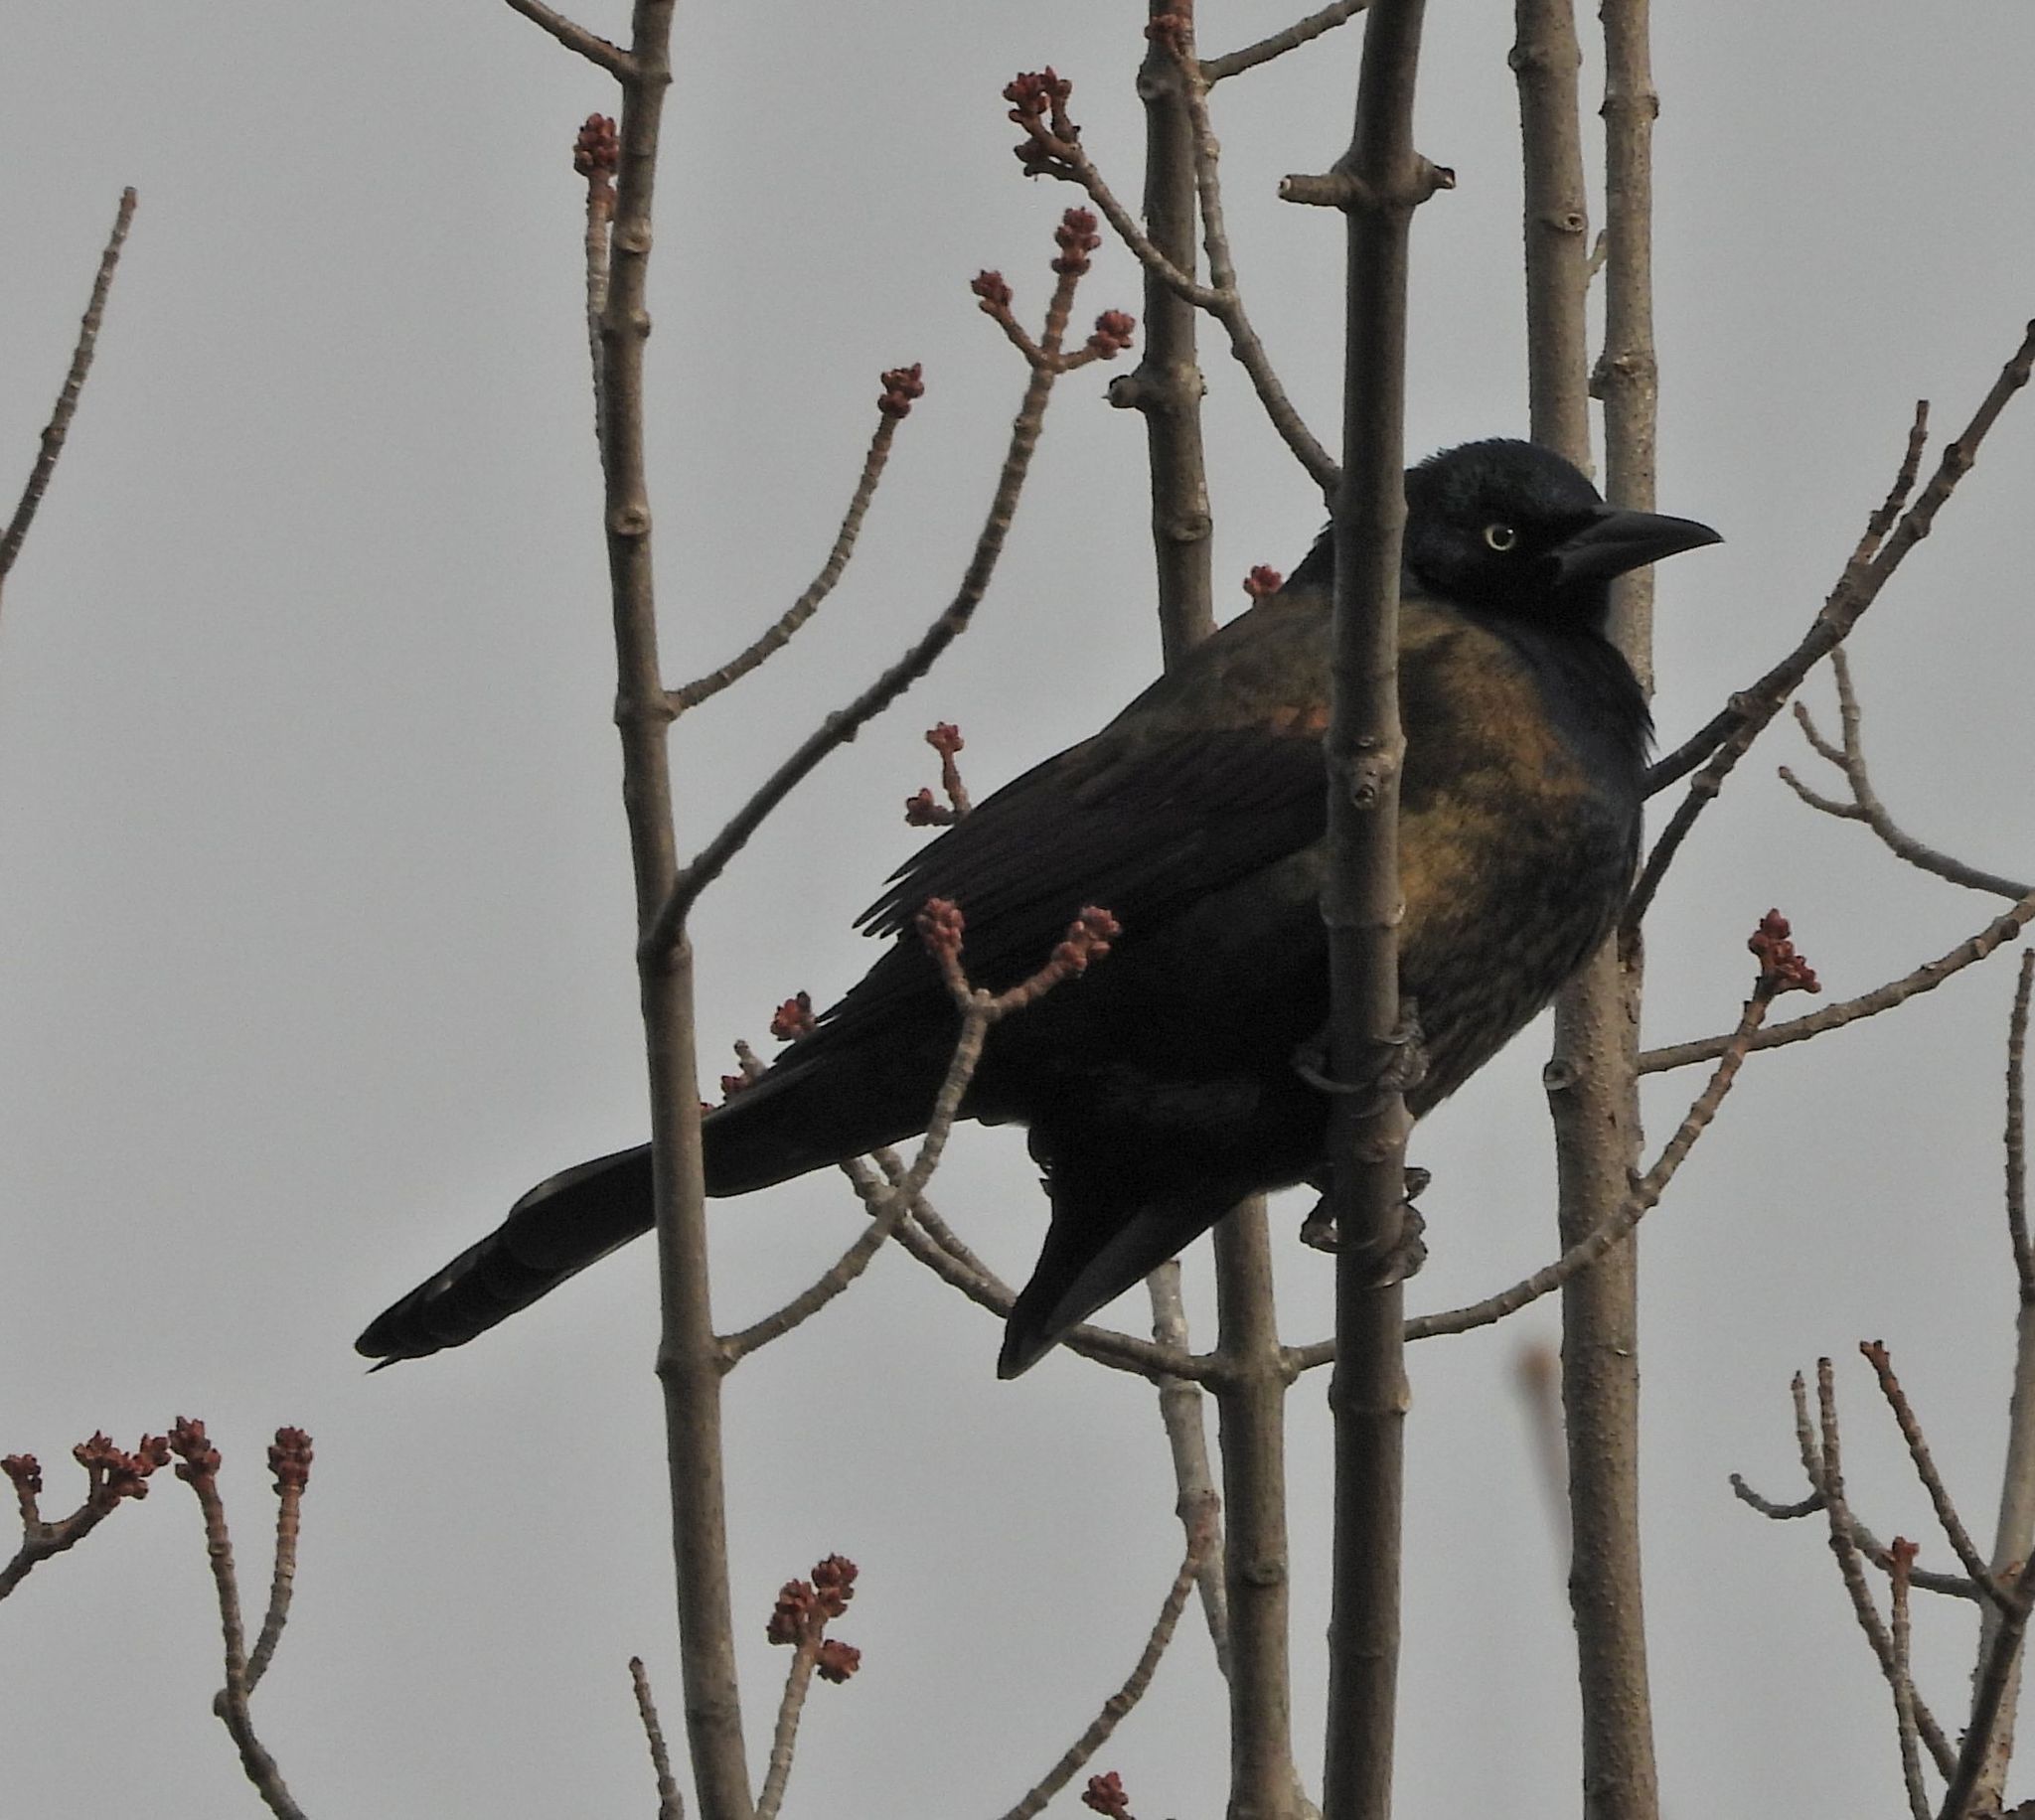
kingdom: Animalia
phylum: Chordata
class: Aves
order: Passeriformes
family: Icteridae
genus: Quiscalus
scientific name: Quiscalus quiscula
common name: Common grackle
